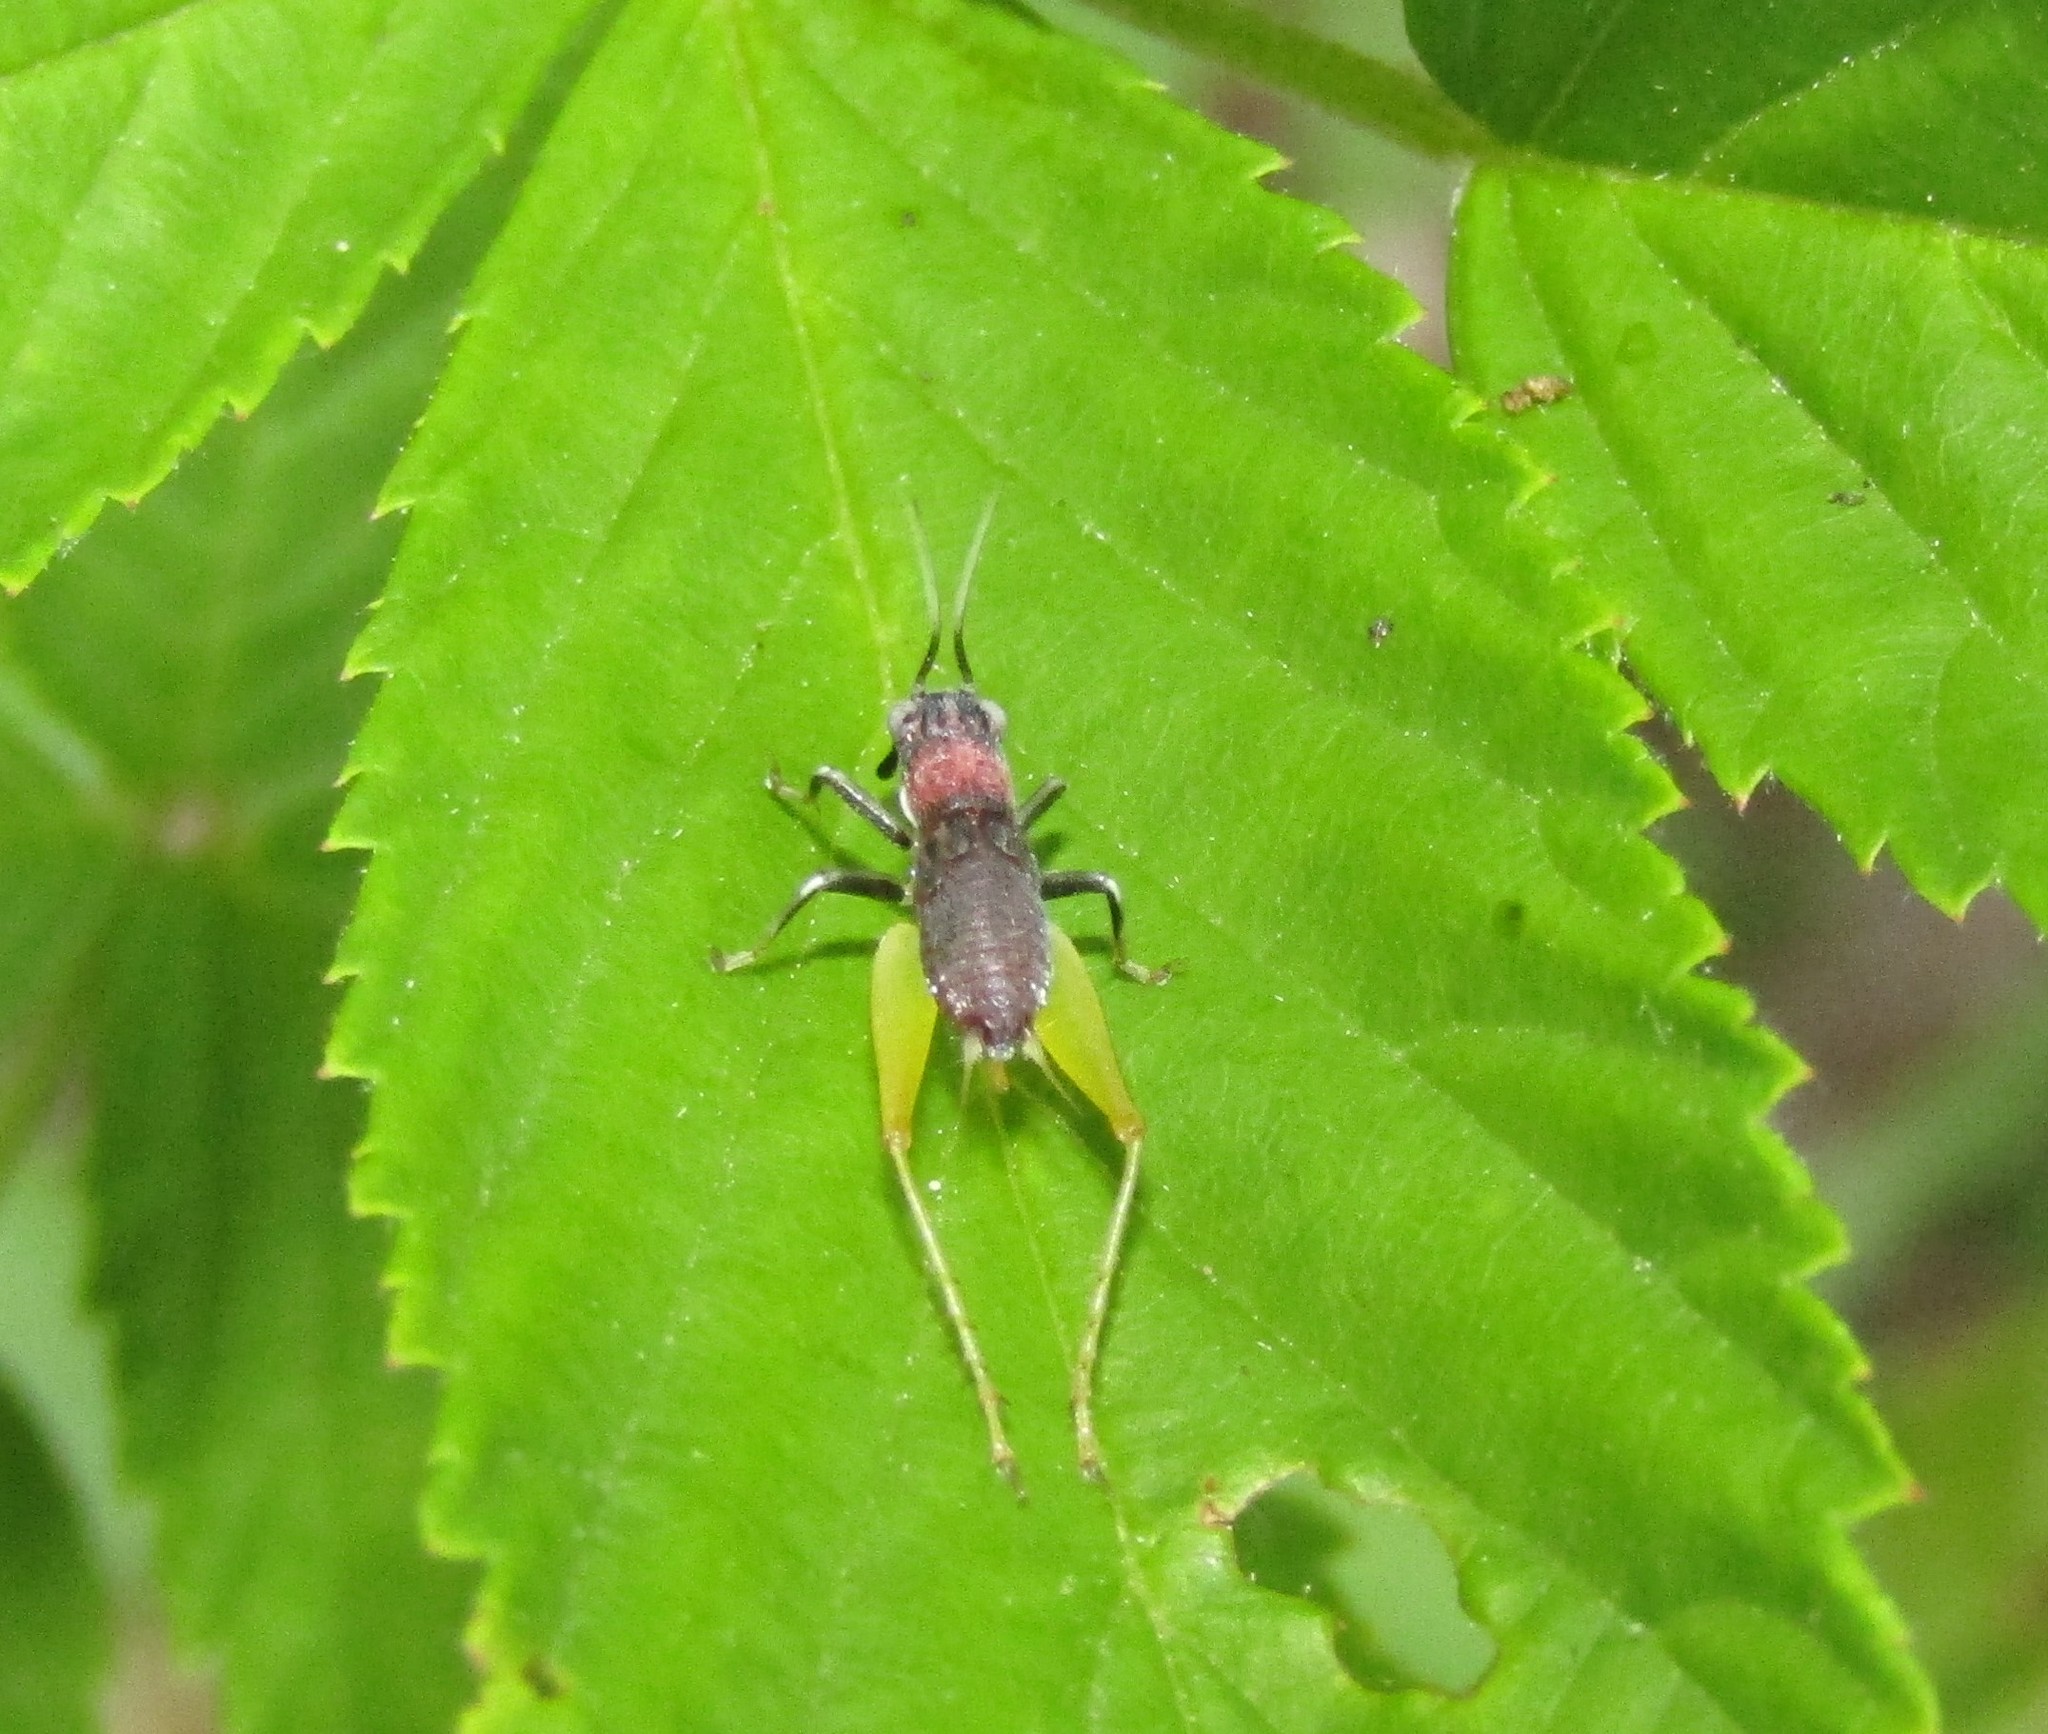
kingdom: Animalia
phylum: Arthropoda
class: Insecta
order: Orthoptera
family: Trigonidiidae
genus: Phyllopalpus
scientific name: Phyllopalpus pulchellus
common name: Handsome trig
